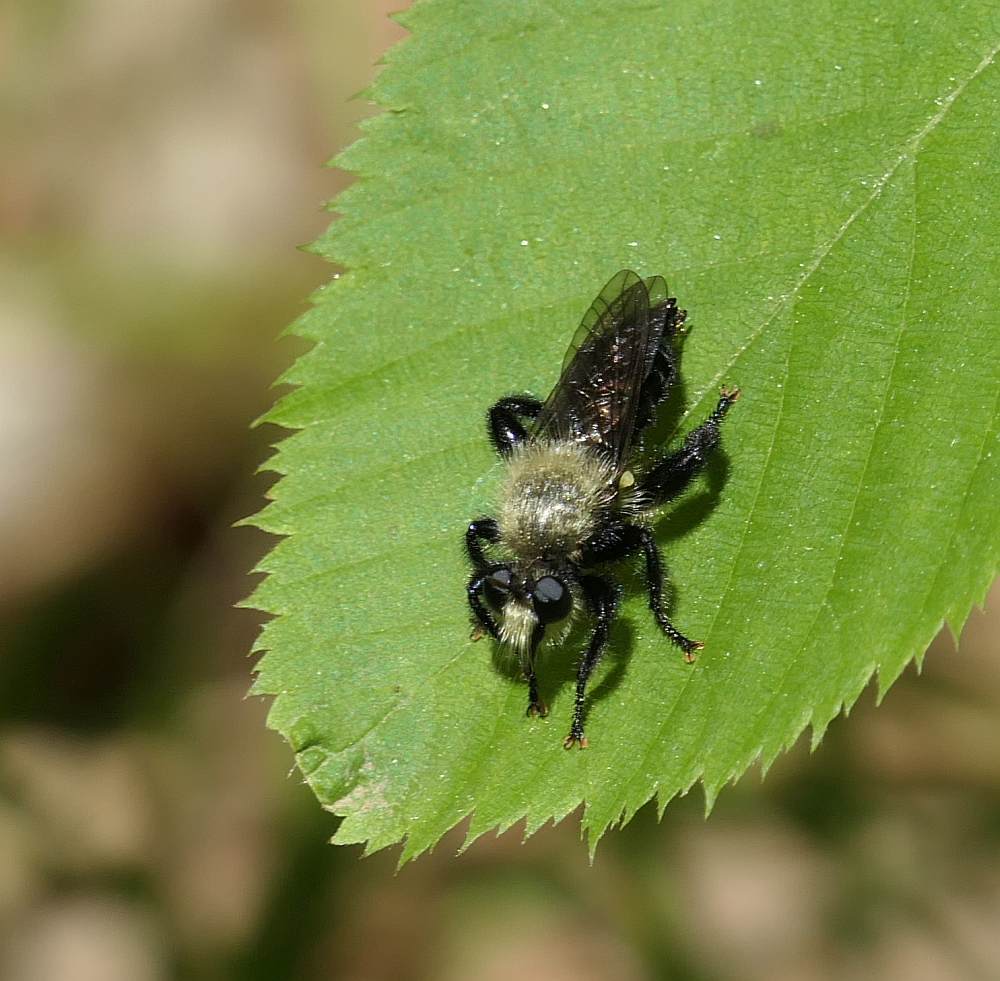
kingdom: Animalia
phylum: Arthropoda
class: Insecta
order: Diptera
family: Asilidae
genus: Laphria
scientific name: Laphria flavicollis
